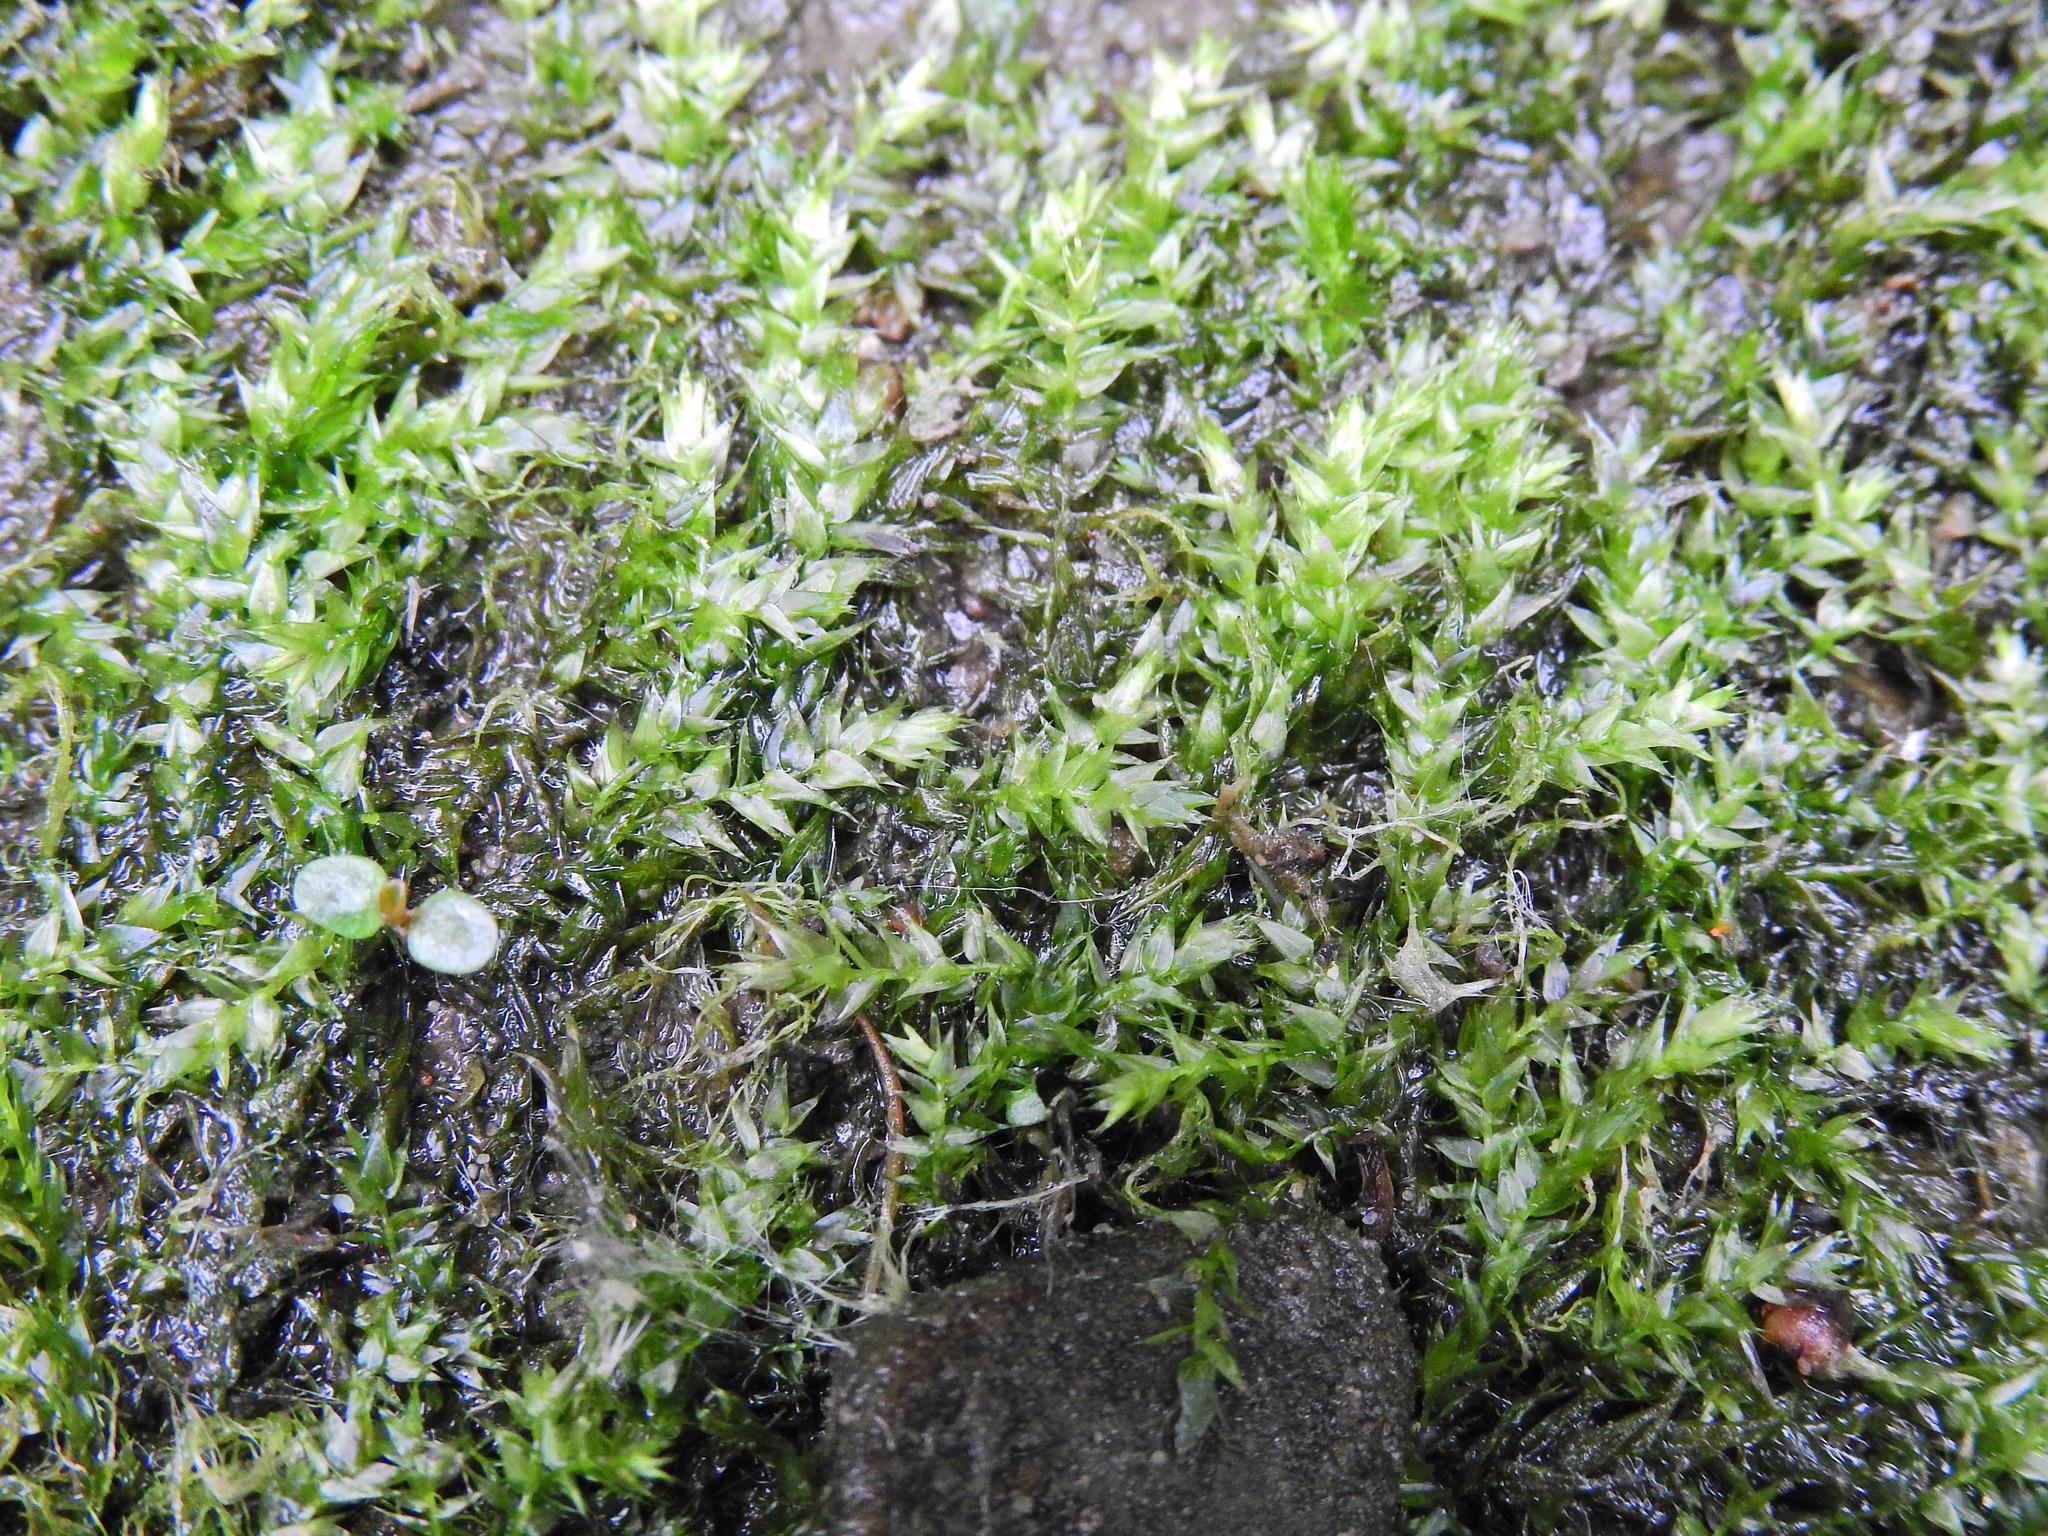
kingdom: Plantae
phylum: Bryophyta
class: Bryopsida
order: Hypnales
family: Amblystegiaceae
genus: Leptodictyum
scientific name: Leptodictyum riparium
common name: Riparian feather moss
